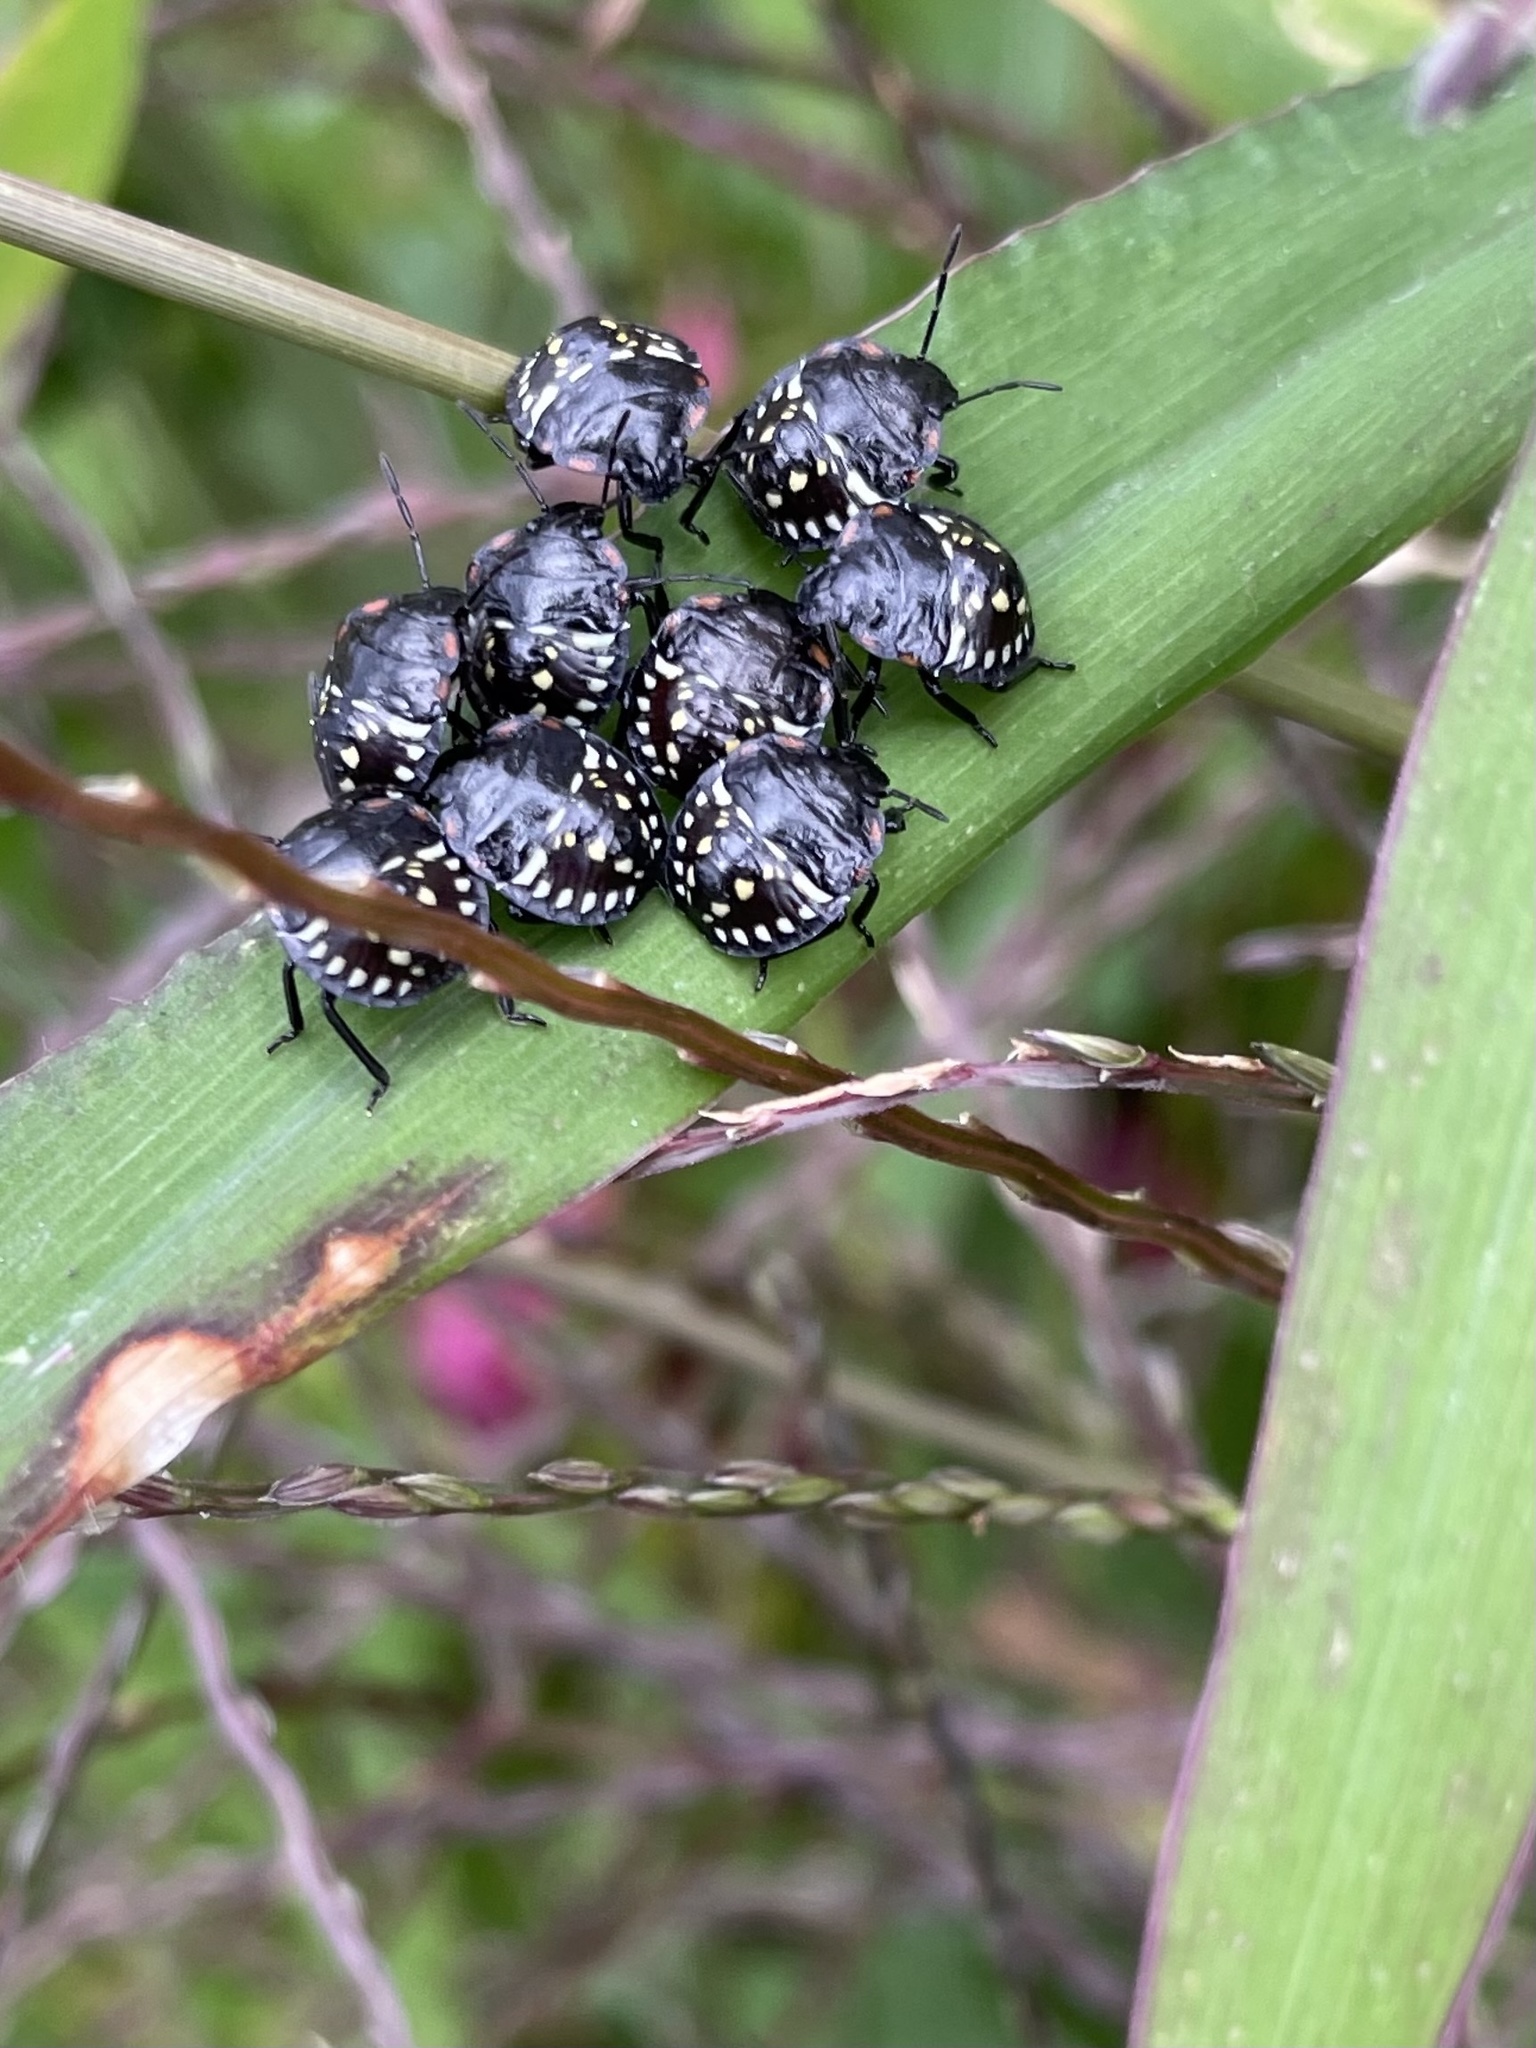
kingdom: Animalia
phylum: Arthropoda
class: Insecta
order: Hemiptera
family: Pentatomidae
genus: Nezara
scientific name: Nezara viridula
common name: Southern green stink bug
